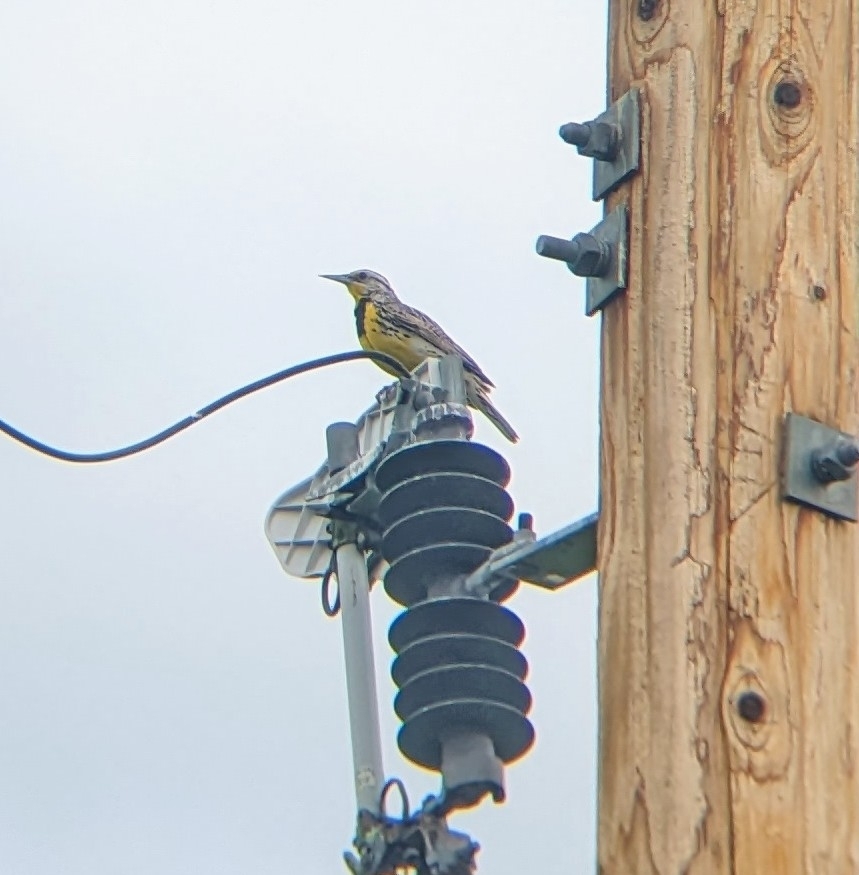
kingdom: Animalia
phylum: Chordata
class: Aves
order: Passeriformes
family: Icteridae
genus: Sturnella
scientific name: Sturnella neglecta
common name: Western meadowlark
